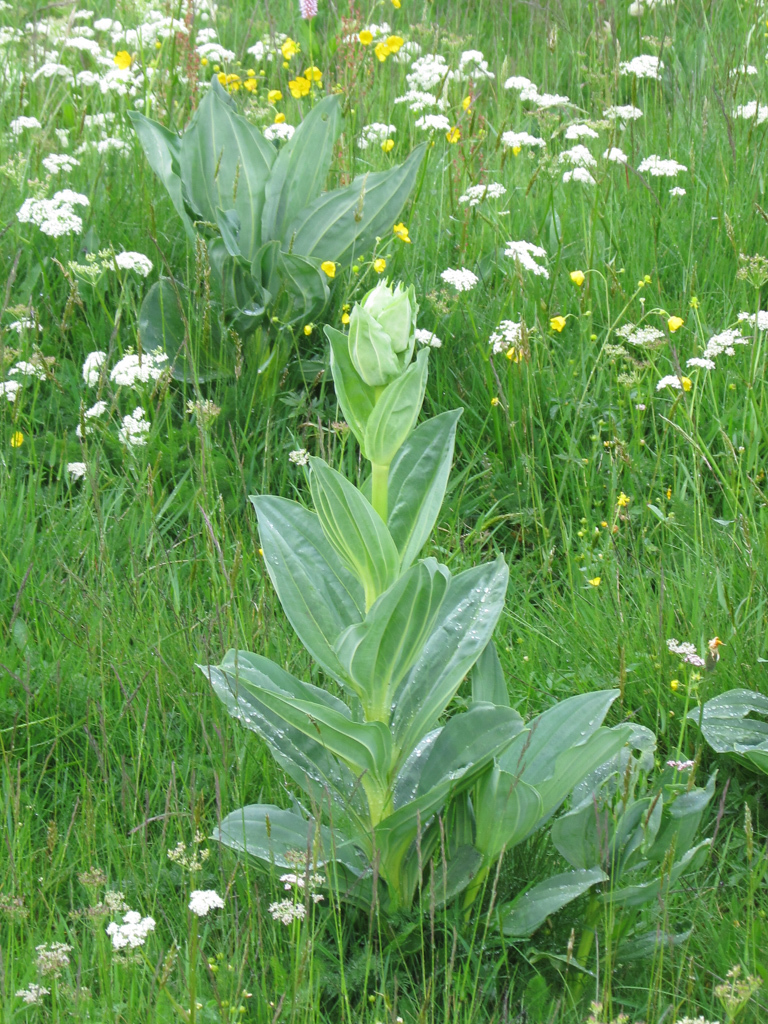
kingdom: Plantae
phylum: Tracheophyta
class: Magnoliopsida
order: Gentianales
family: Gentianaceae
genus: Gentiana
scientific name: Gentiana lutea
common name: Great yellow gentian
